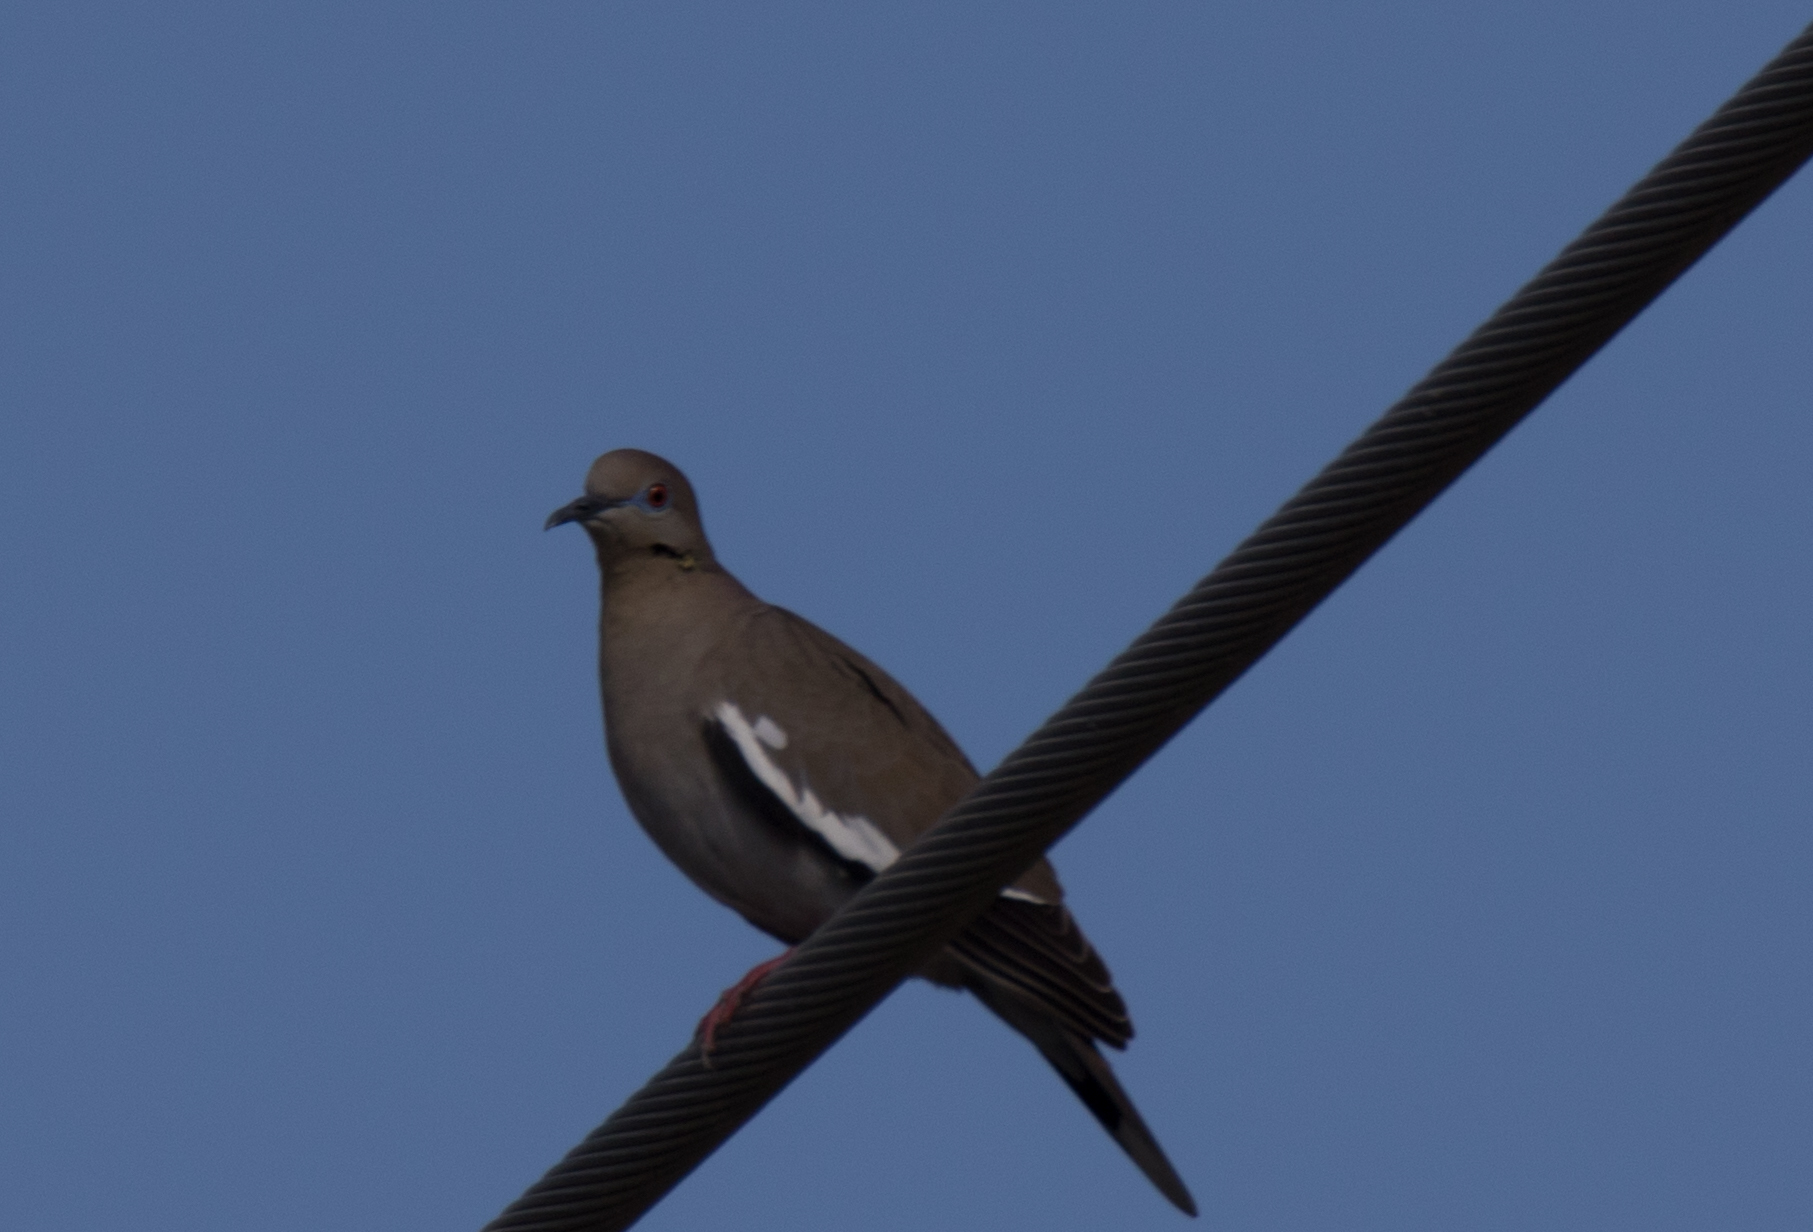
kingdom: Animalia
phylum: Chordata
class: Aves
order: Columbiformes
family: Columbidae
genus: Zenaida
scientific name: Zenaida asiatica
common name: White-winged dove
